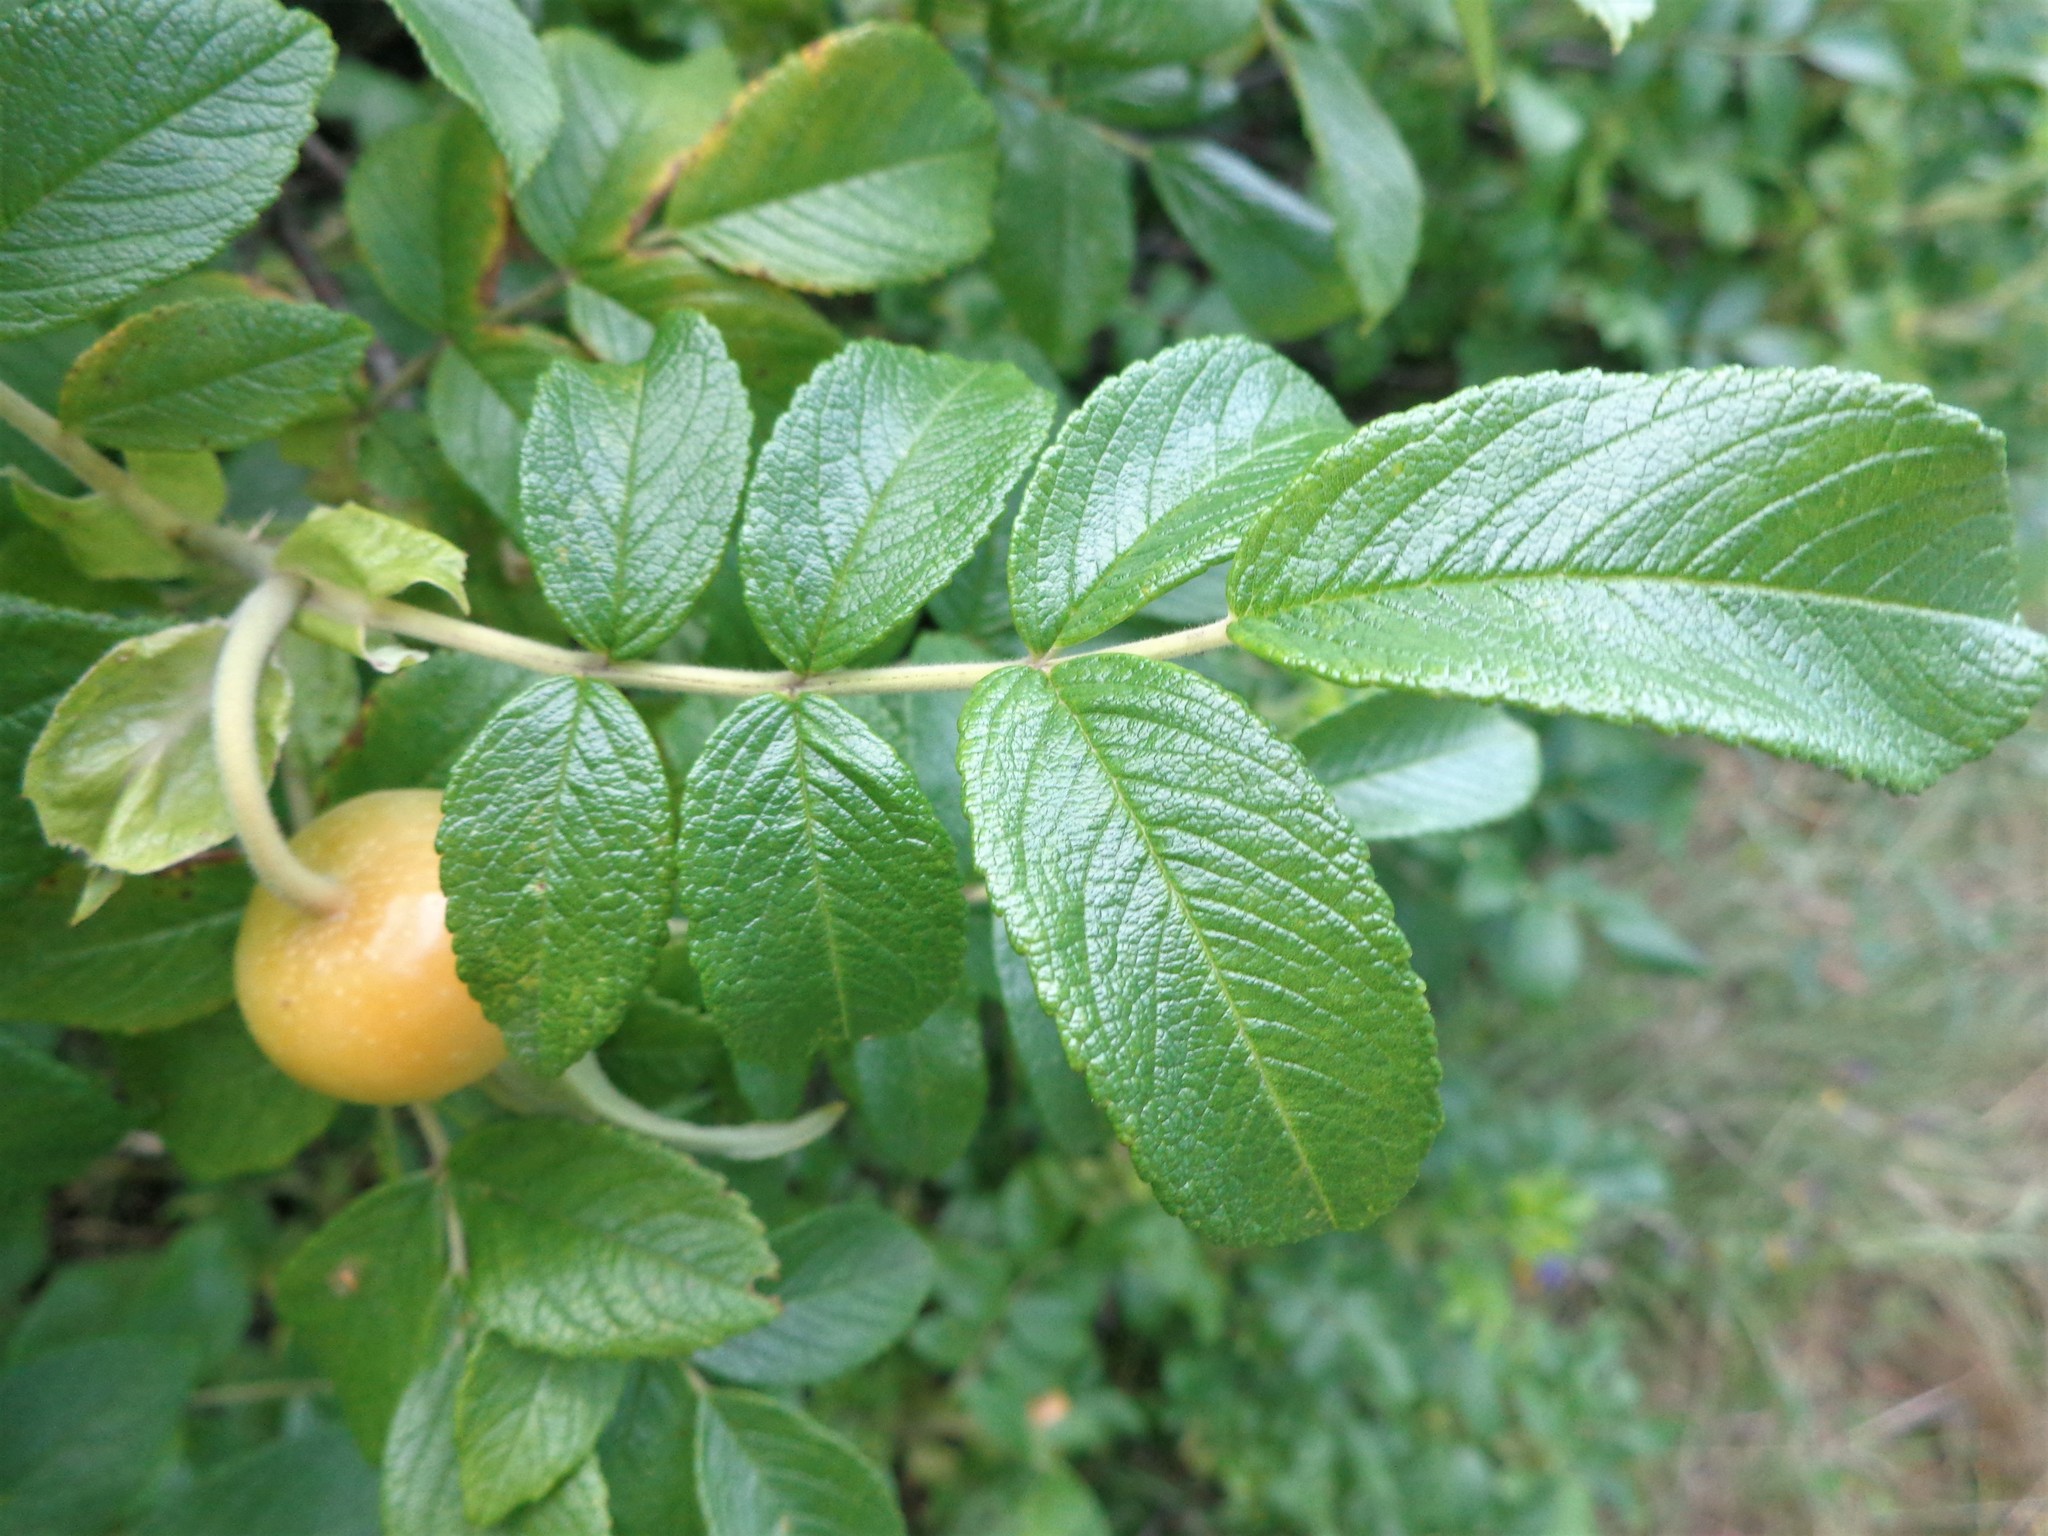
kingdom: Plantae
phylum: Tracheophyta
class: Magnoliopsida
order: Rosales
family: Rosaceae
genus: Rosa
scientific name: Rosa rugosa
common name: Japanese rose
